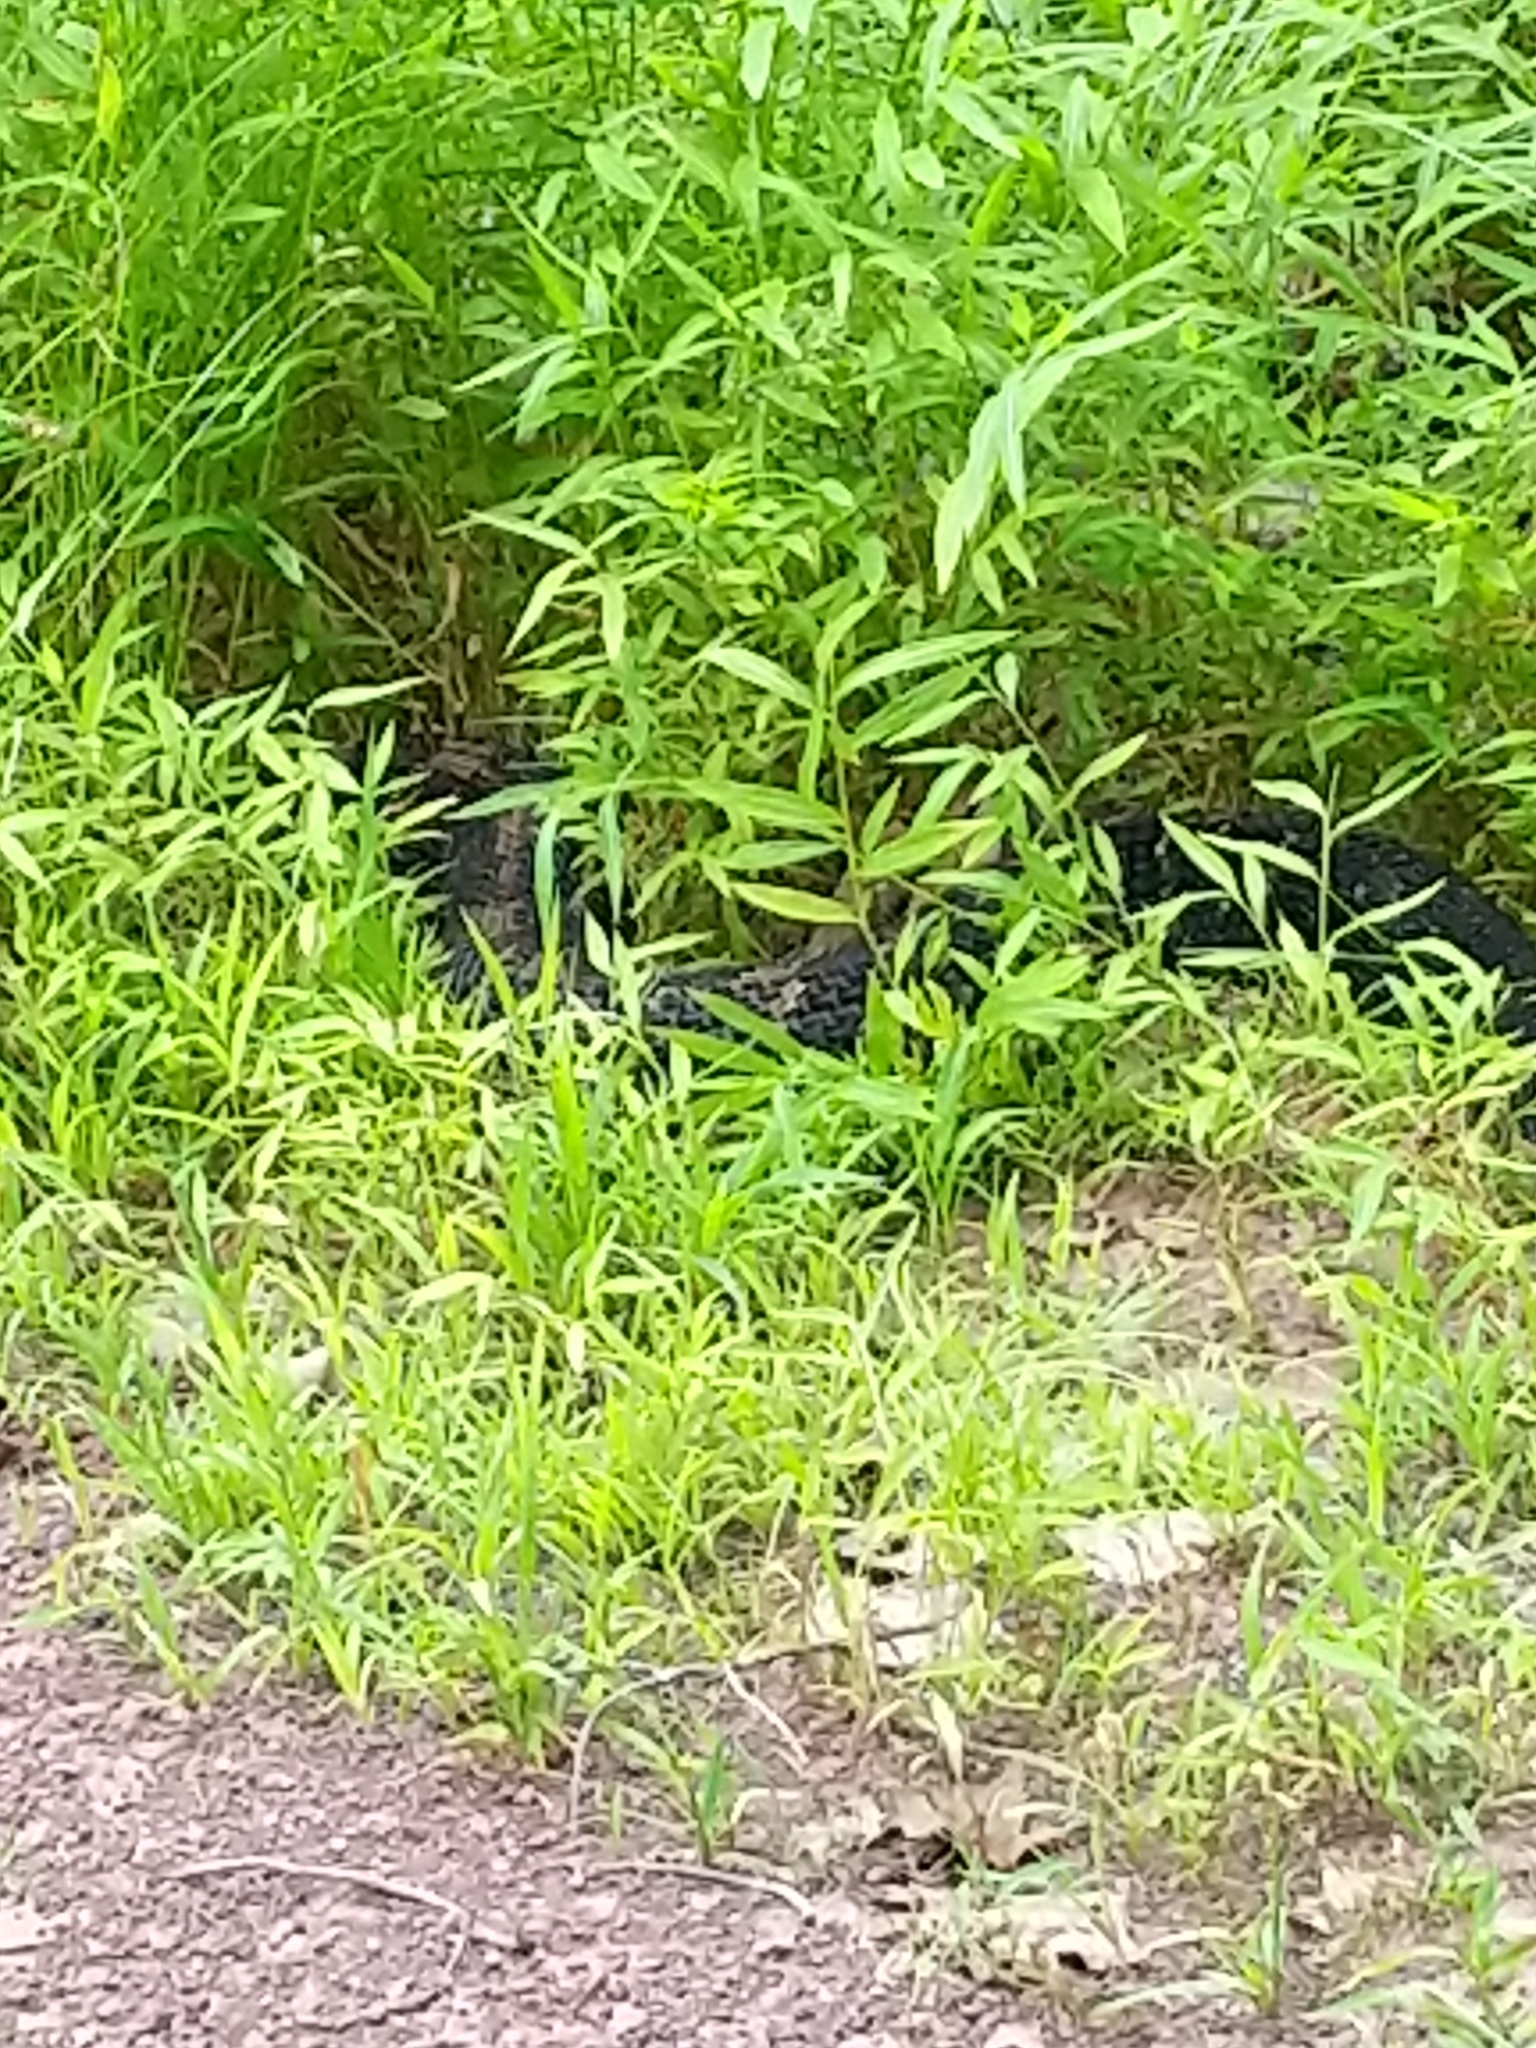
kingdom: Animalia
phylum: Chordata
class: Squamata
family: Viperidae
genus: Crotalus
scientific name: Crotalus horridus
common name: Timber rattlesnake
